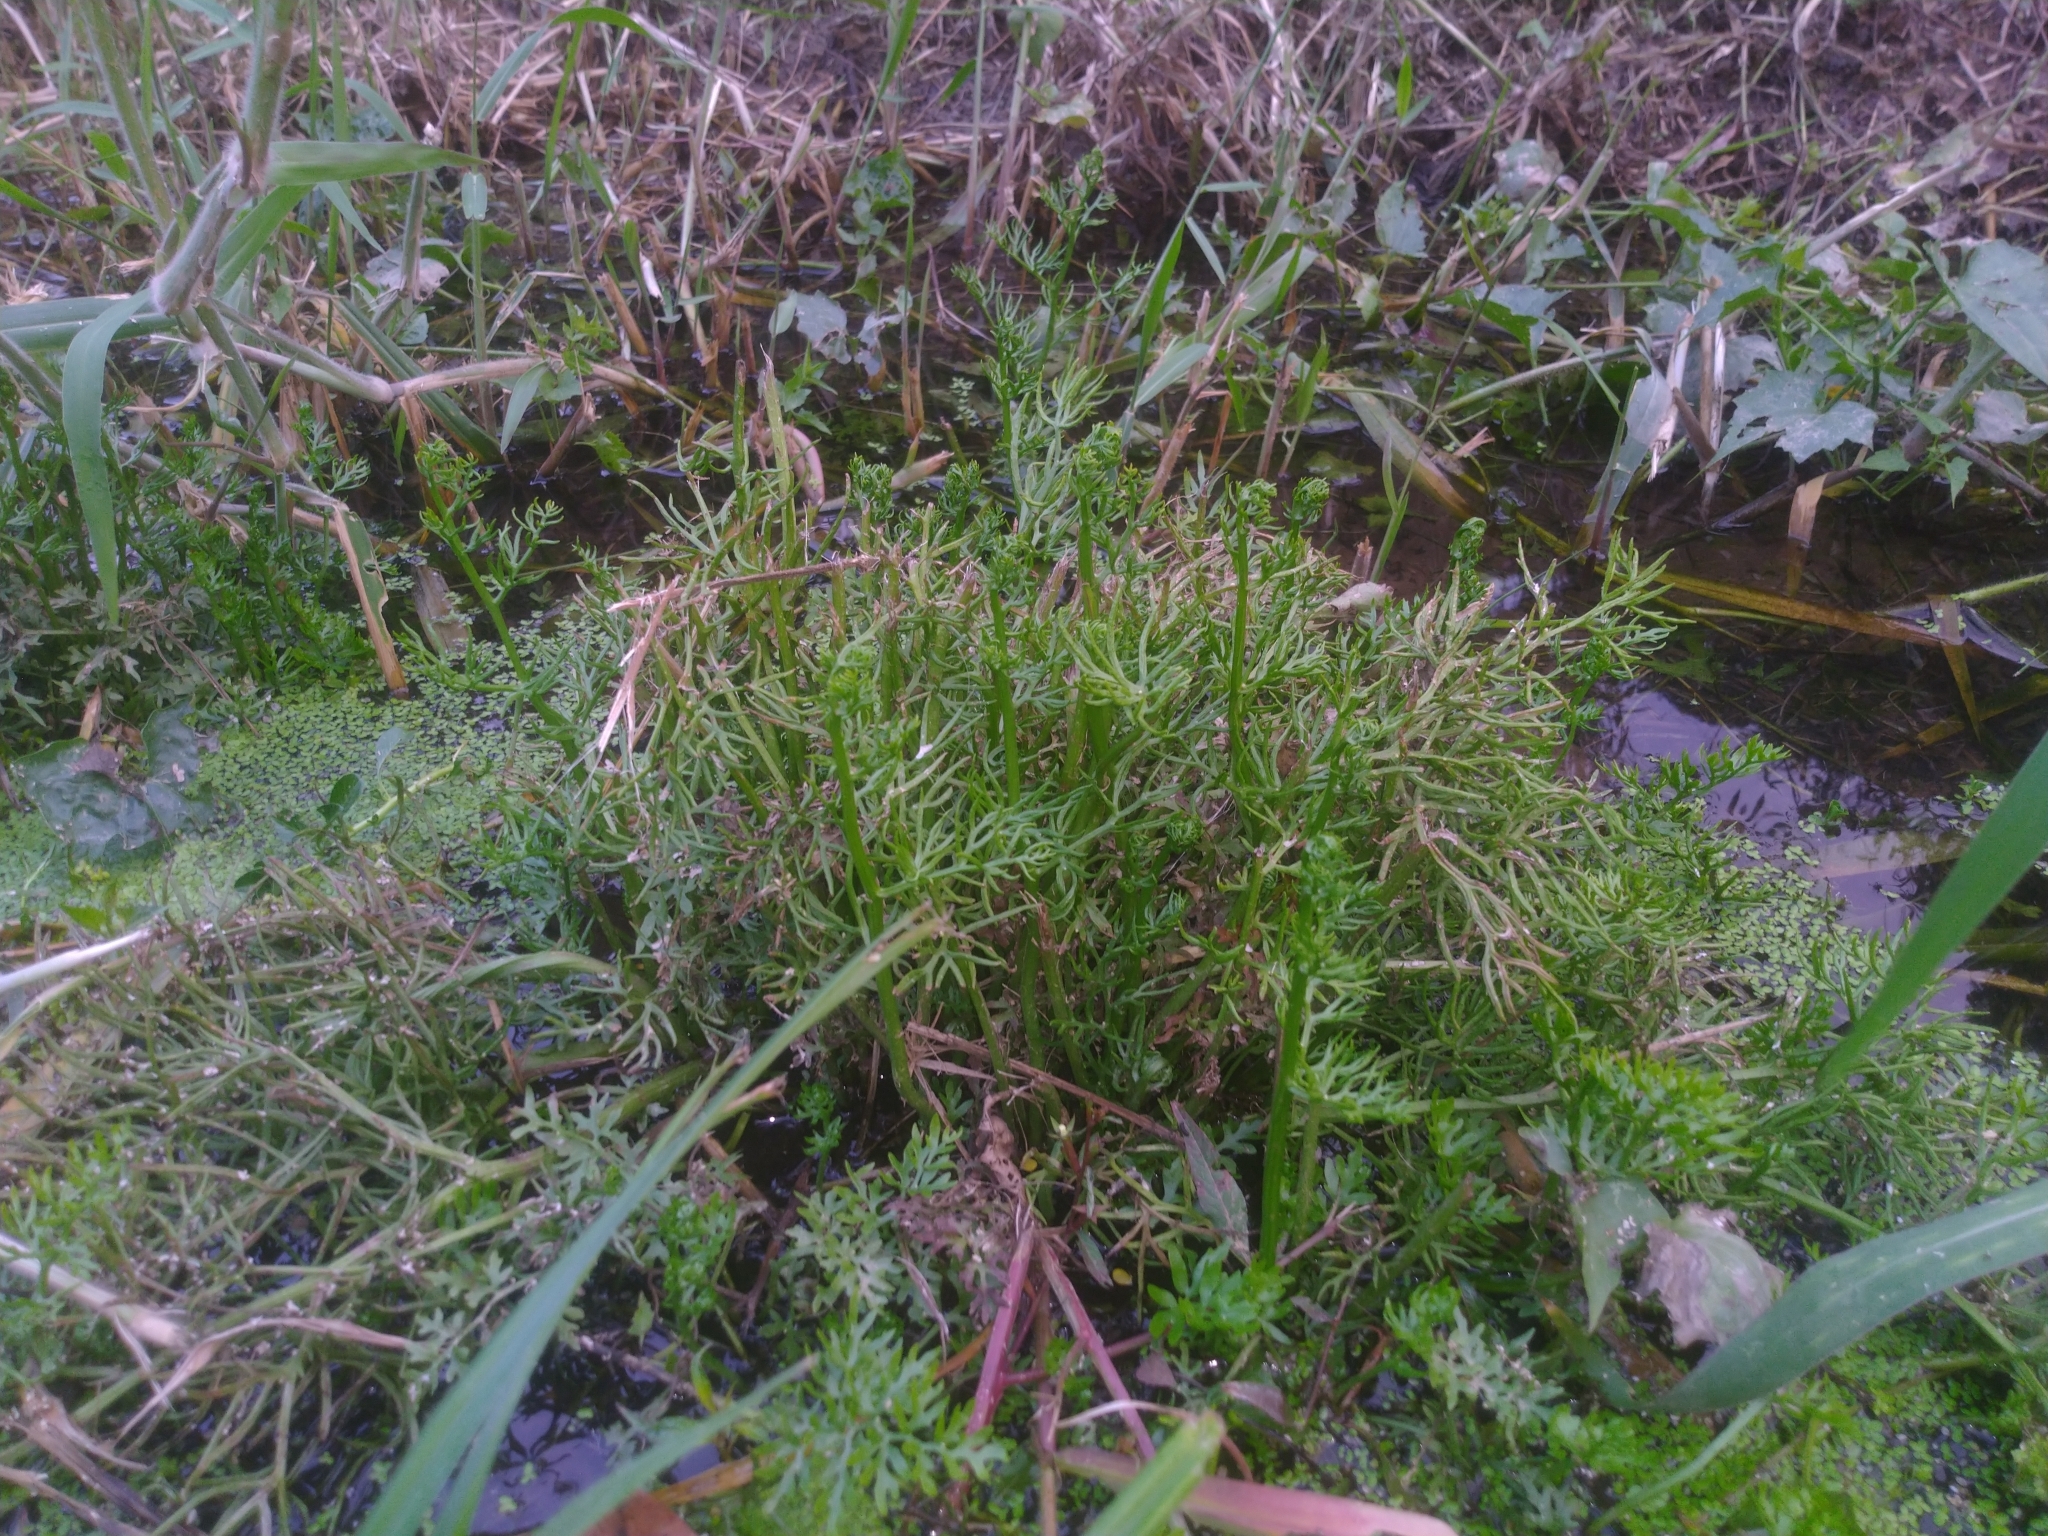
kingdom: Plantae
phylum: Tracheophyta
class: Polypodiopsida
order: Polypodiales
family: Pteridaceae
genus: Ceratopteris
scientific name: Ceratopteris thalictroides
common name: Water fern
